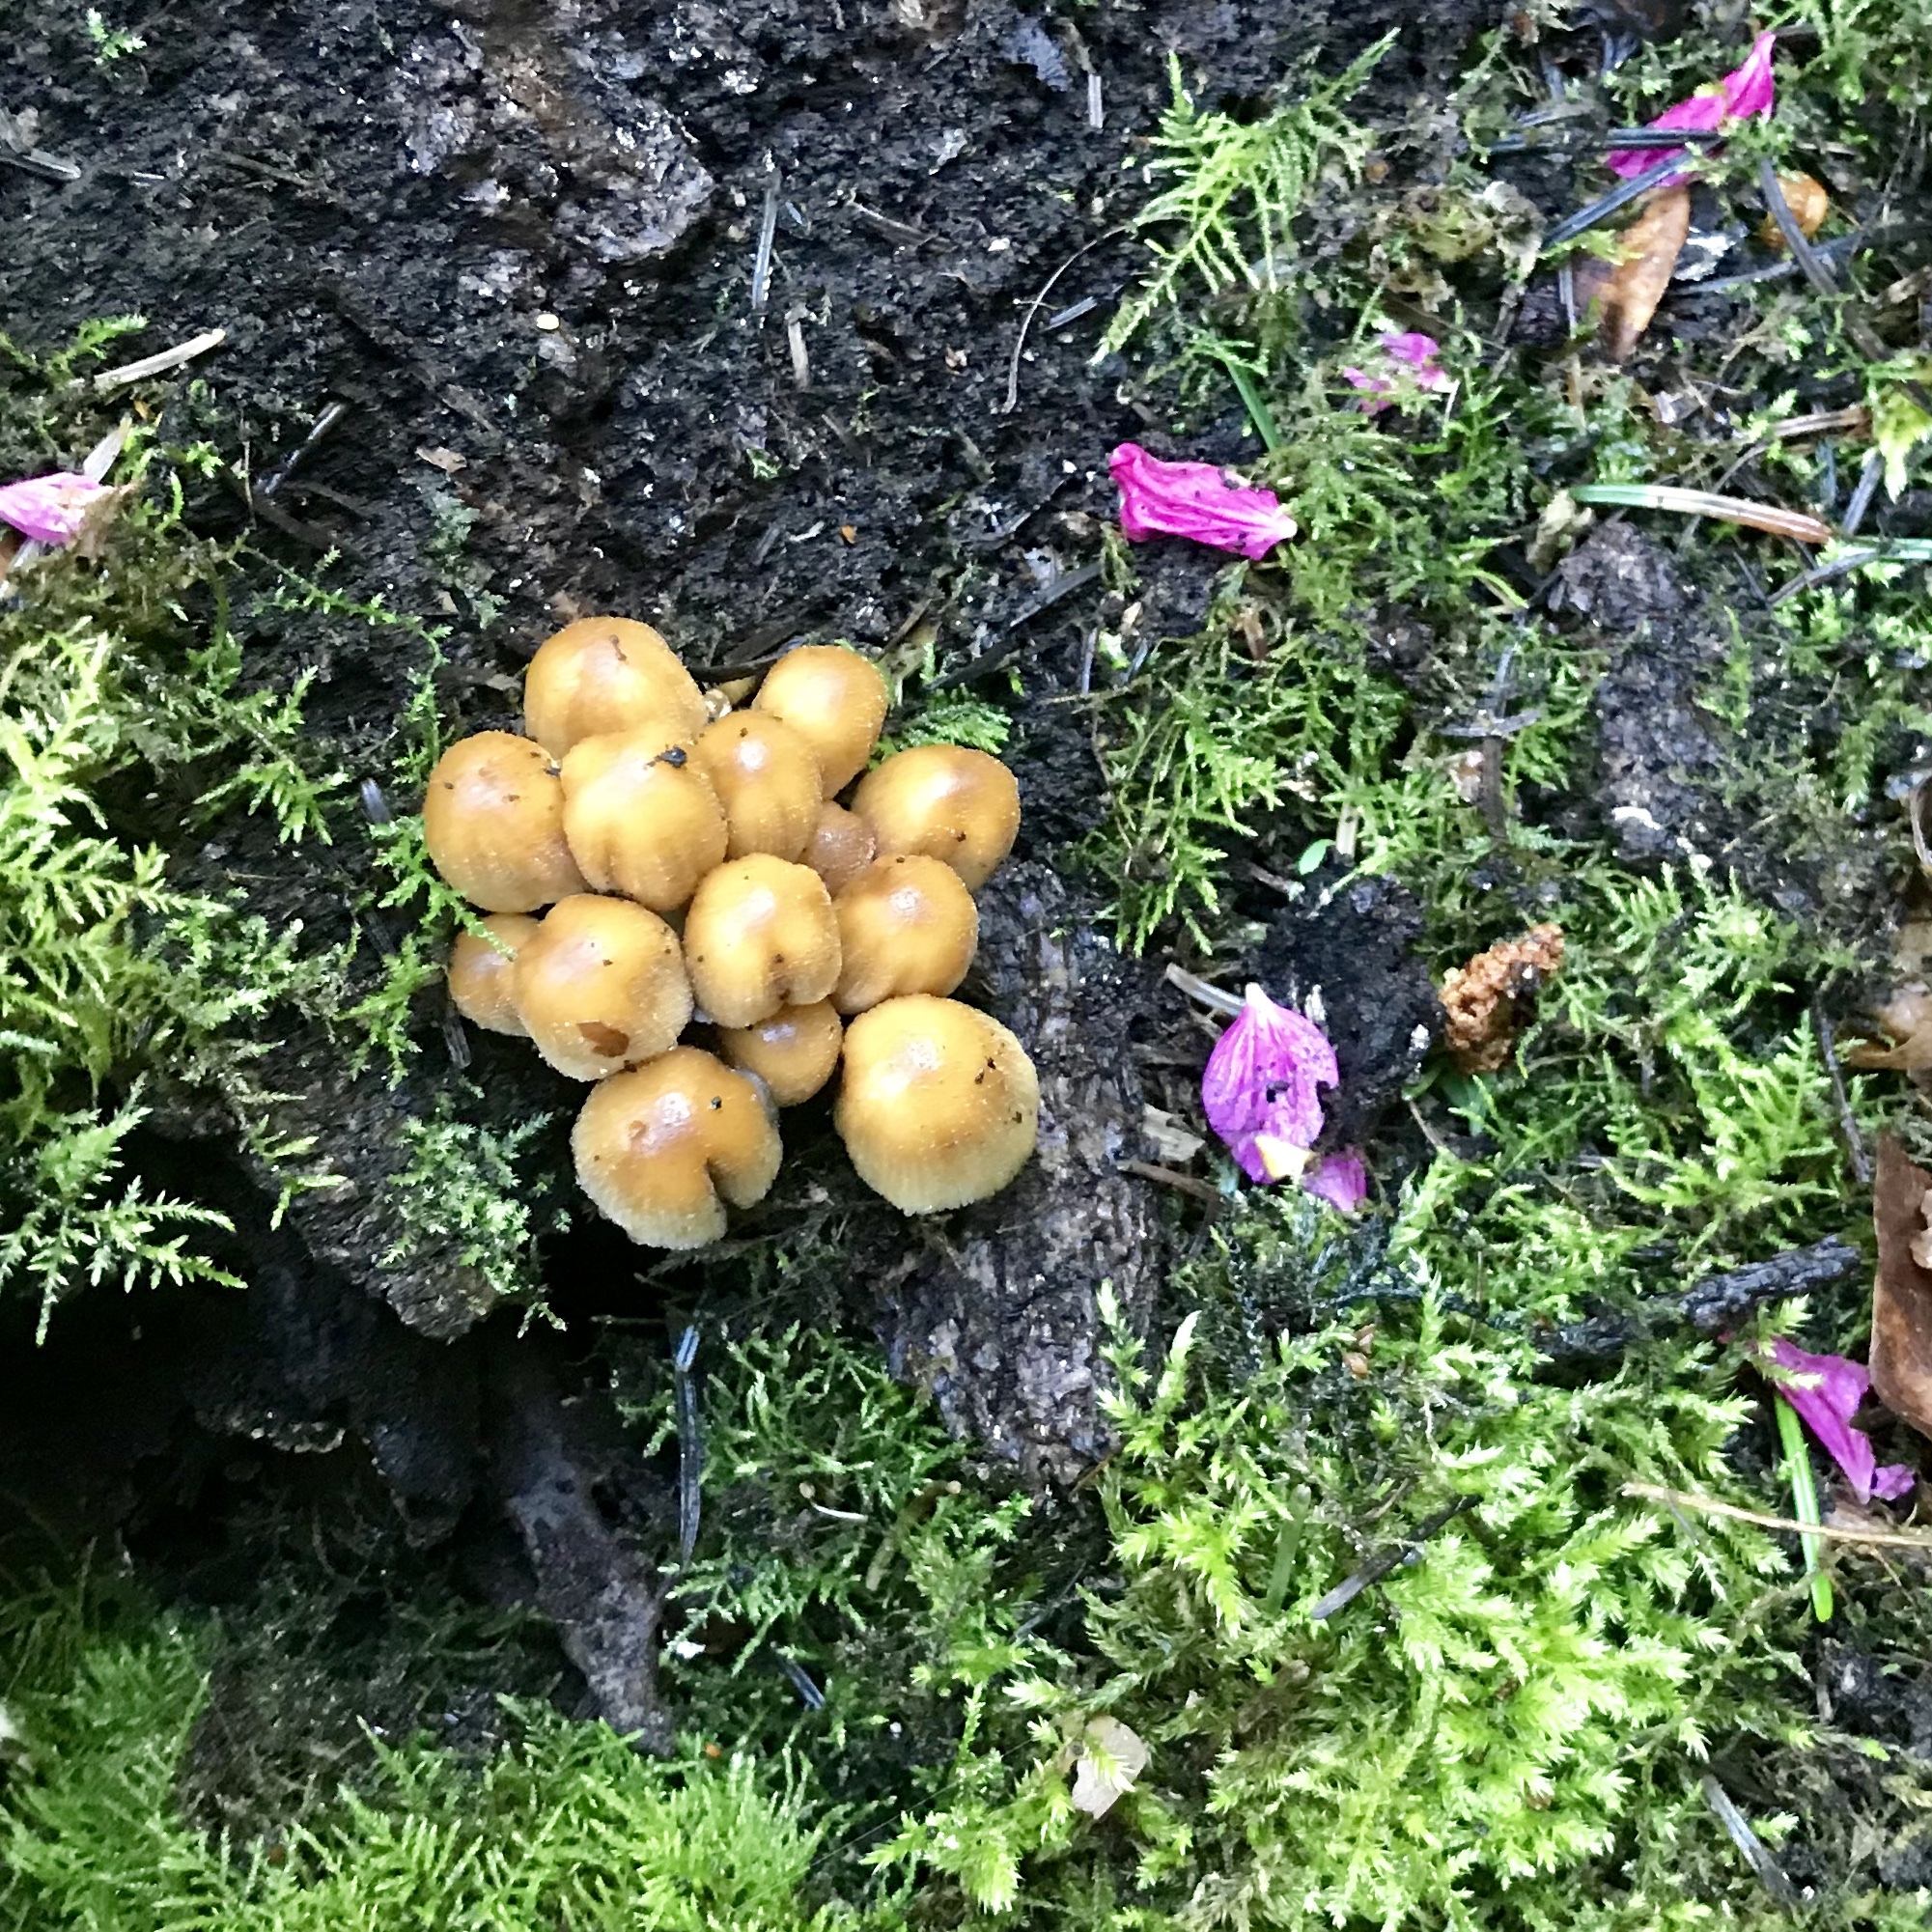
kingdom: Fungi
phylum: Basidiomycota
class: Agaricomycetes
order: Agaricales
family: Psathyrellaceae
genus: Coprinellus
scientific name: Coprinellus micaceus
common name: Glistening ink-cap
